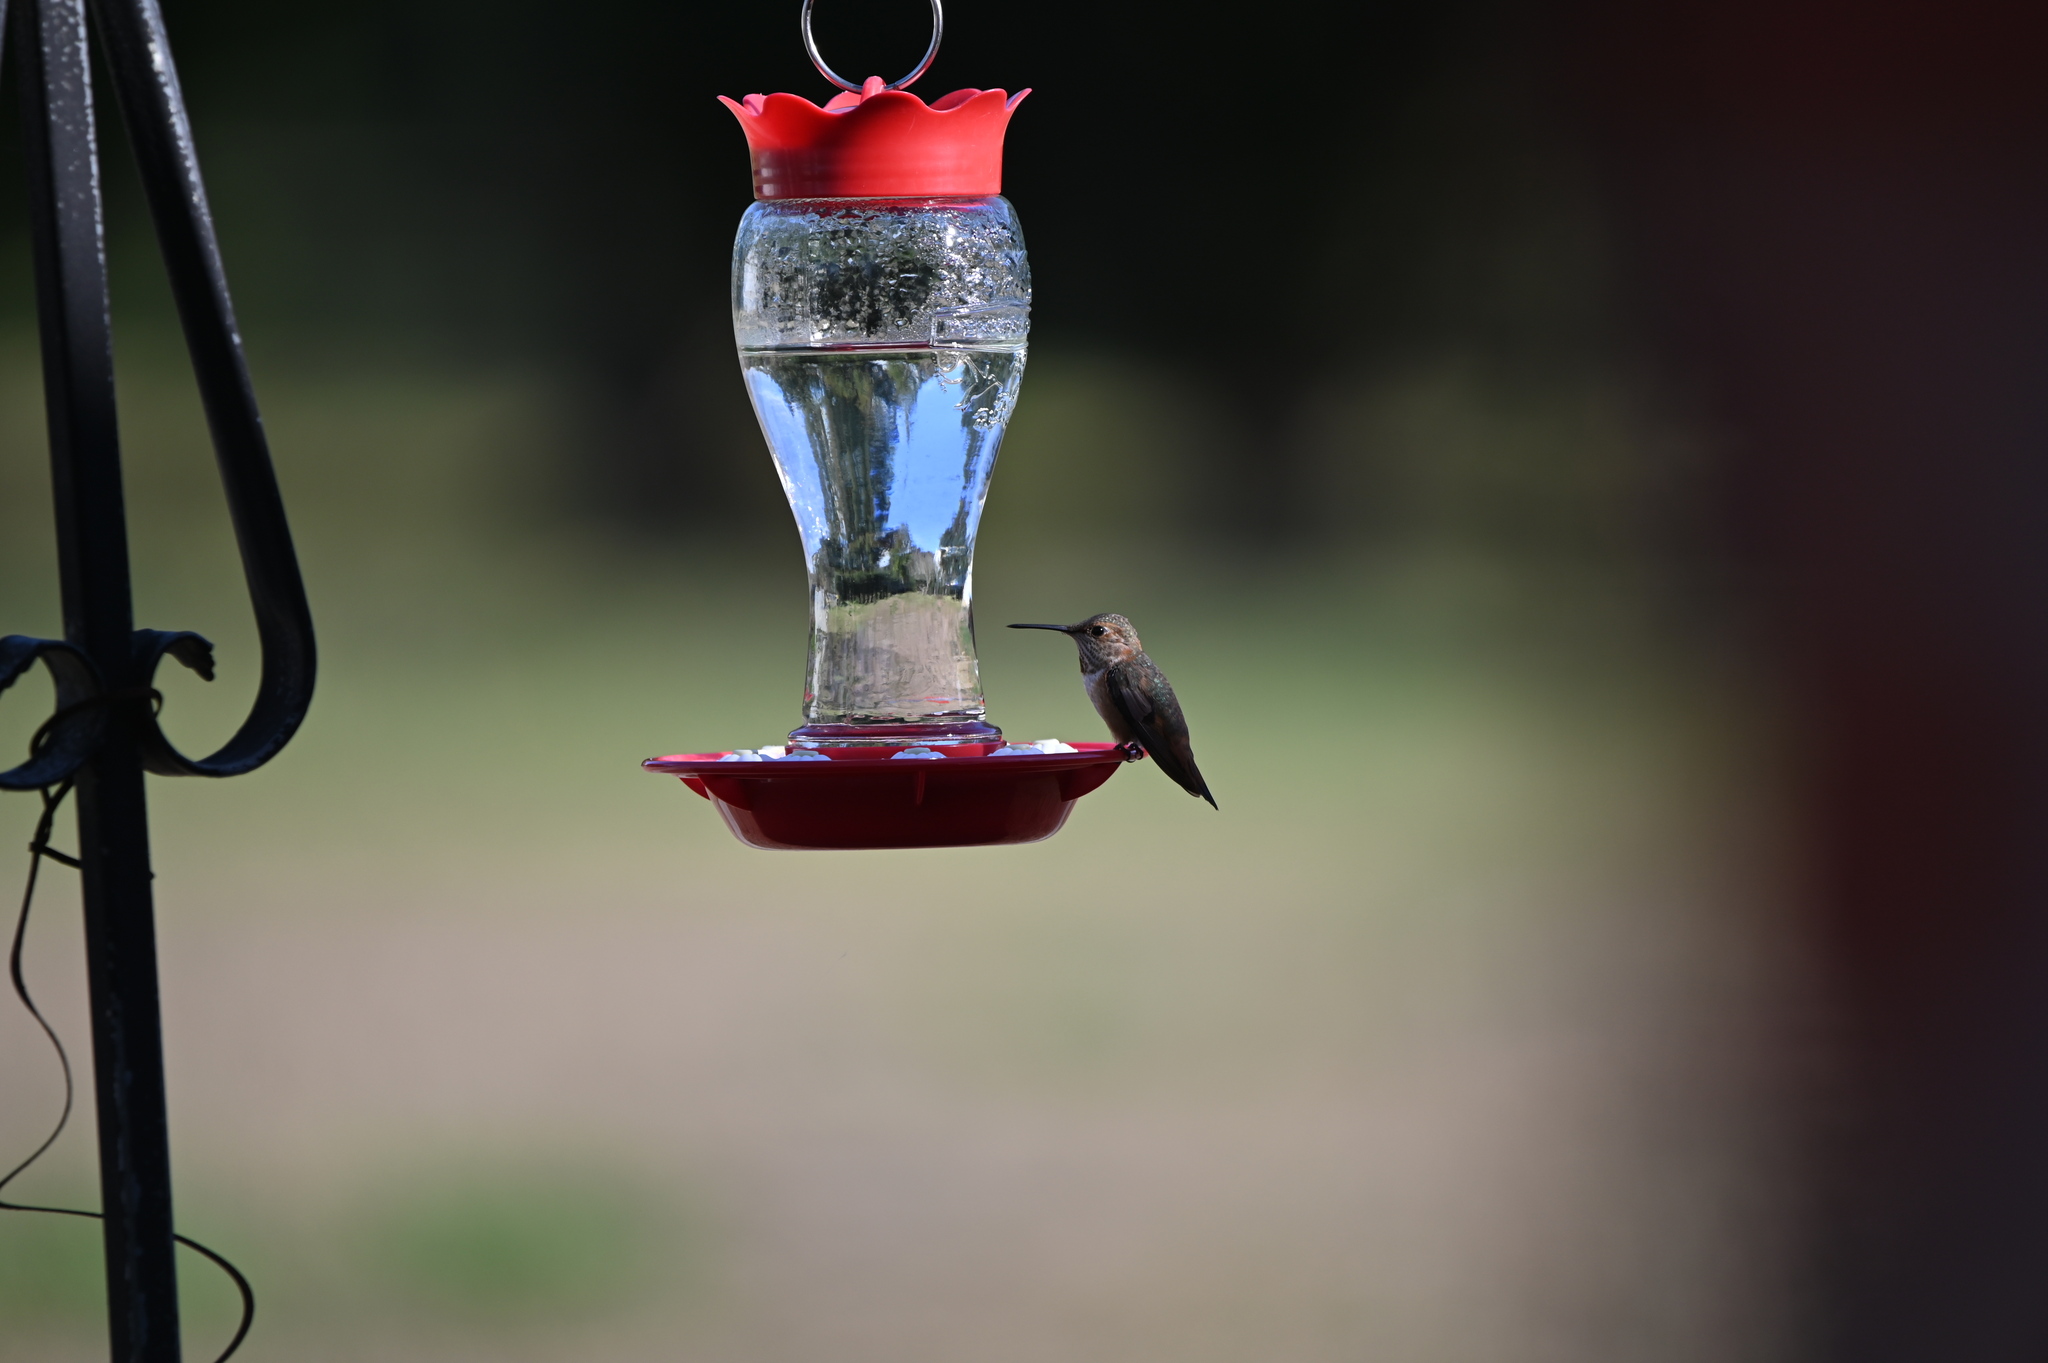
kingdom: Animalia
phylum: Chordata
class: Aves
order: Apodiformes
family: Trochilidae
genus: Selasphorus
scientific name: Selasphorus rufus
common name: Rufous hummingbird
